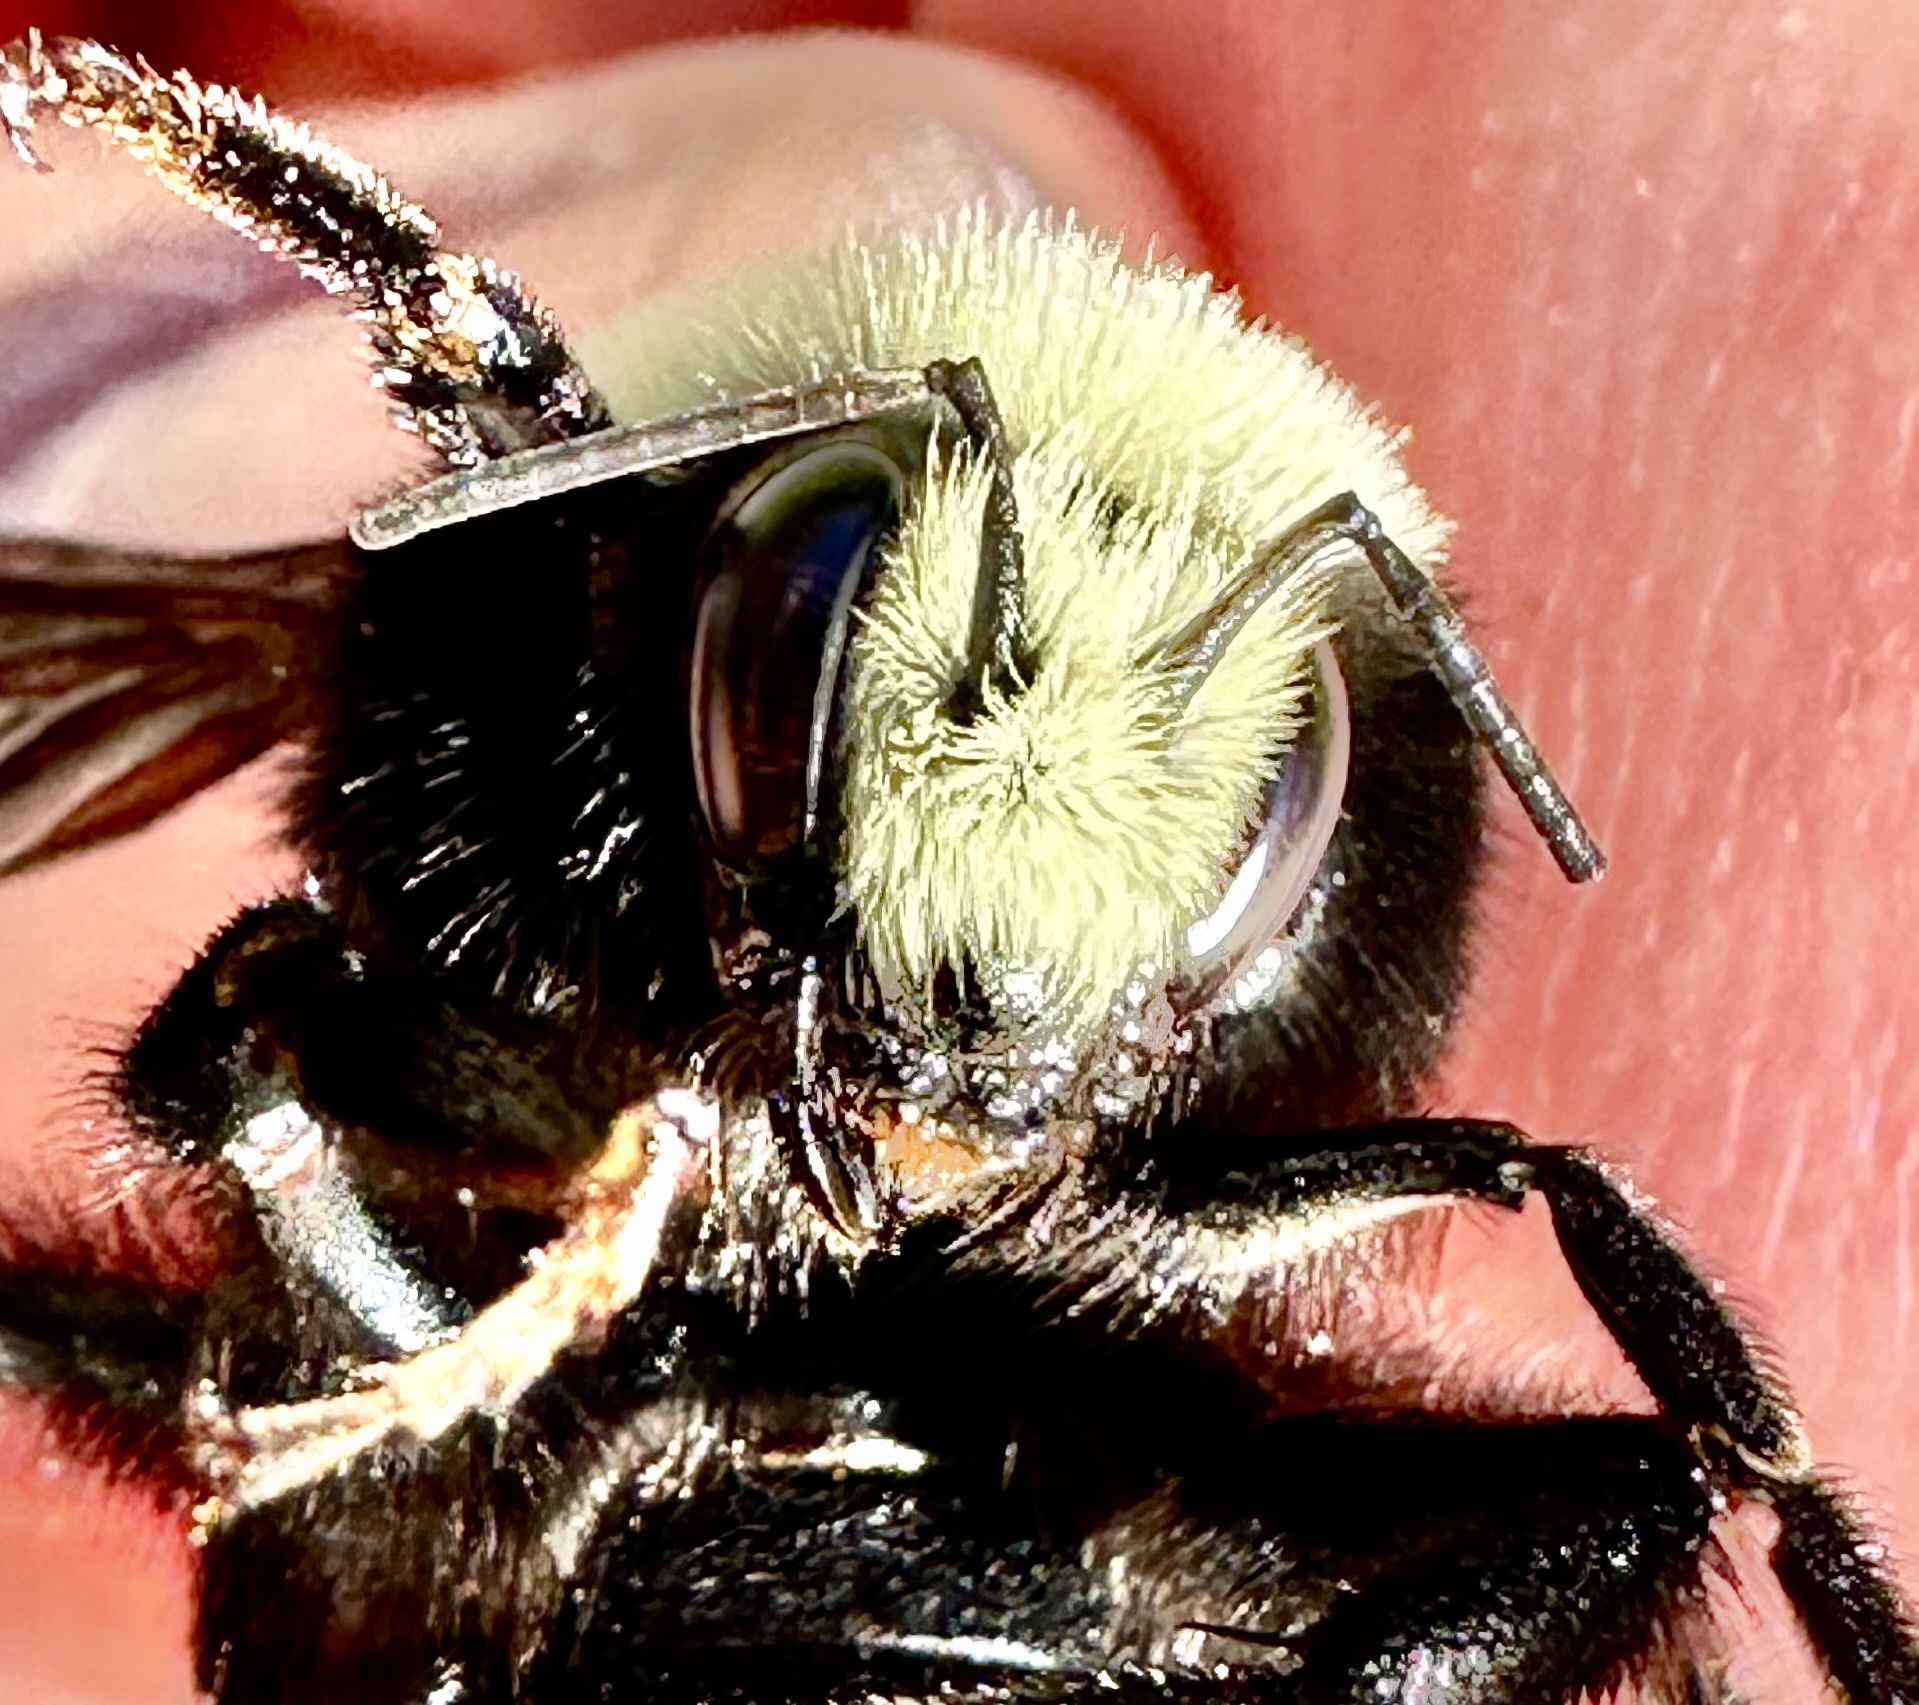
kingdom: Animalia
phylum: Arthropoda
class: Insecta
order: Hymenoptera
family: Apidae
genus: Bombus
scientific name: Bombus vosnesenskii
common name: Vosnesensky bumble bee
